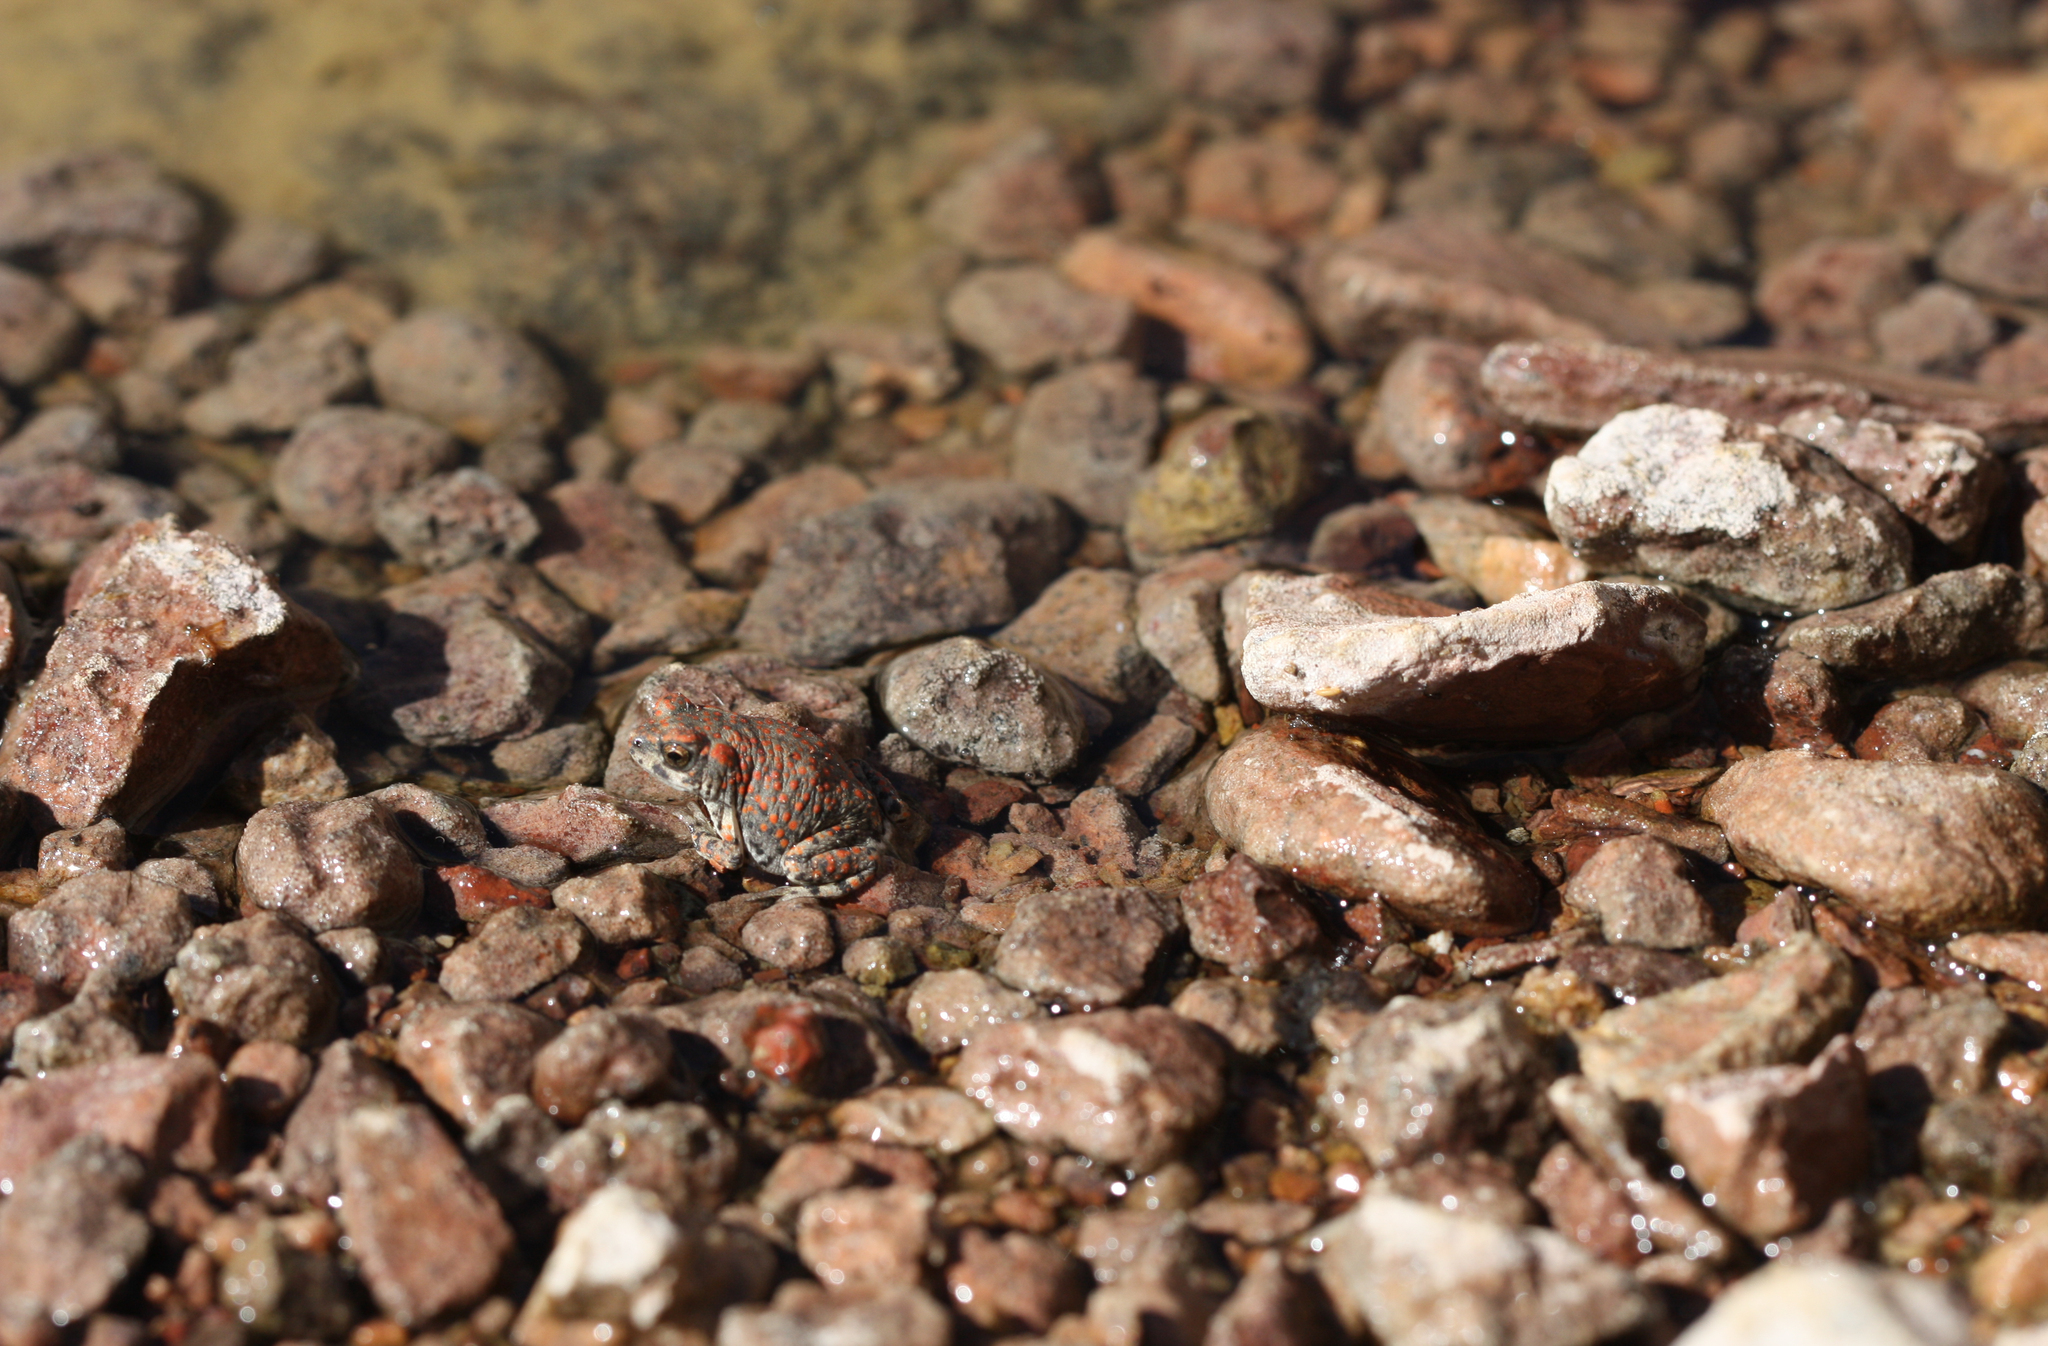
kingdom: Animalia
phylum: Chordata
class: Amphibia
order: Anura
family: Bufonidae
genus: Anaxyrus
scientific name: Anaxyrus punctatus
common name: Red-spotted toad
